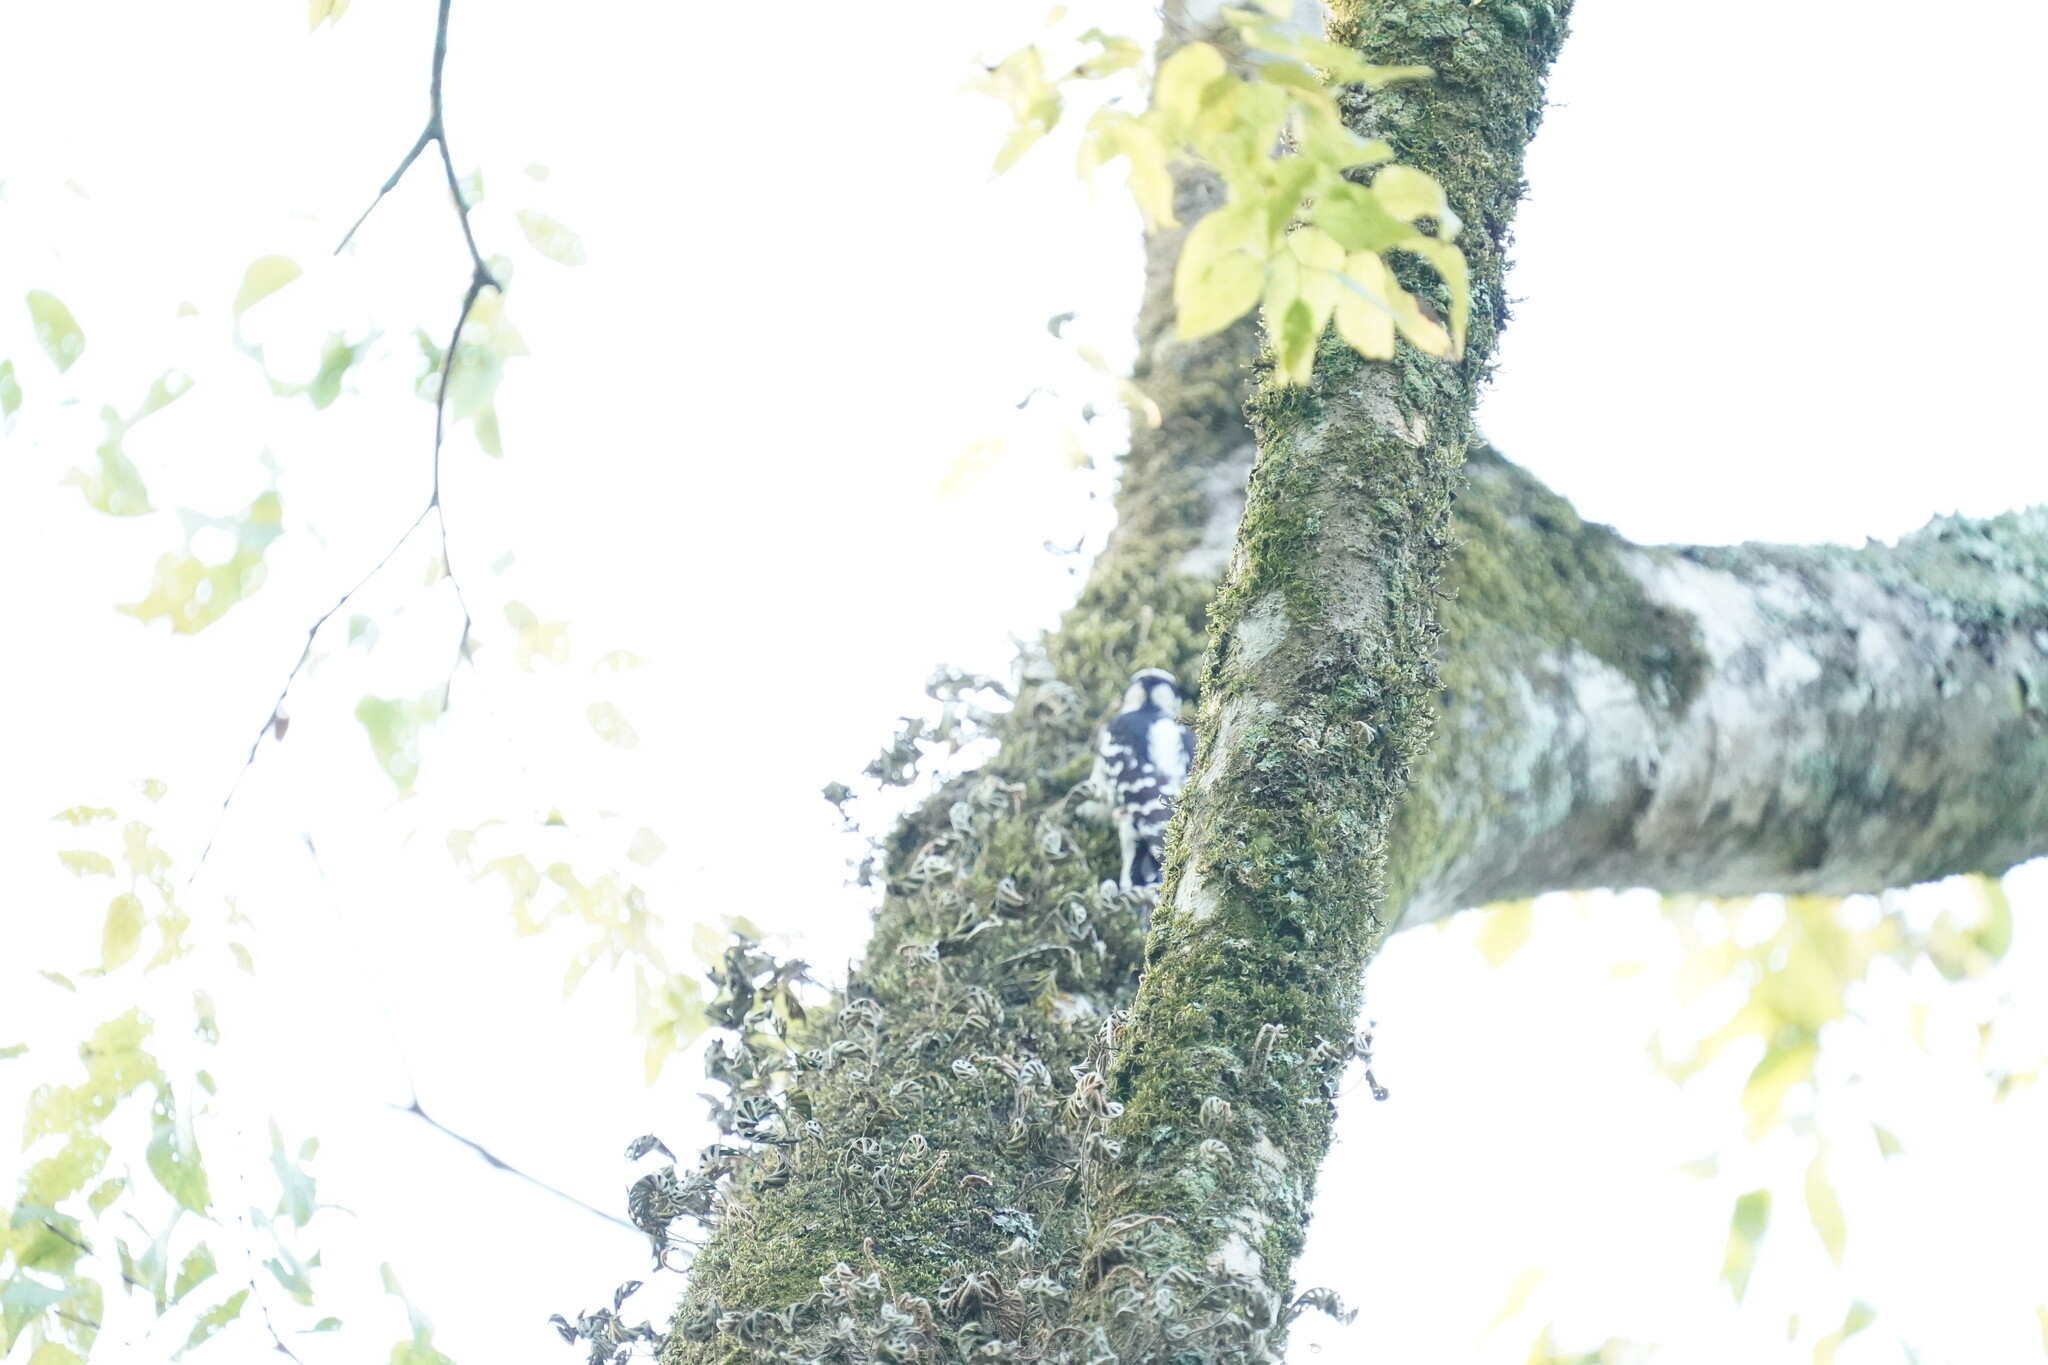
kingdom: Animalia
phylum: Chordata
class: Aves
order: Piciformes
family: Picidae
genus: Dryobates
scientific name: Dryobates pubescens
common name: Downy woodpecker
